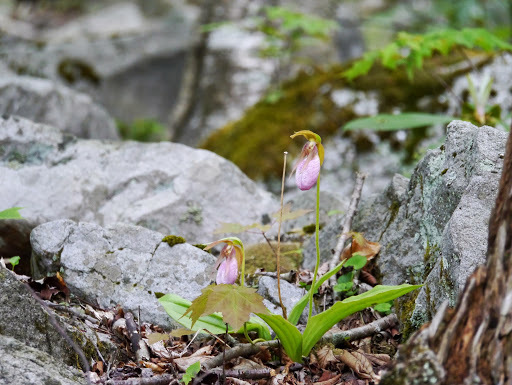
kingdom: Plantae
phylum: Tracheophyta
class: Liliopsida
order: Asparagales
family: Orchidaceae
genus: Cypripedium
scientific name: Cypripedium acaule
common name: Pink lady's-slipper
